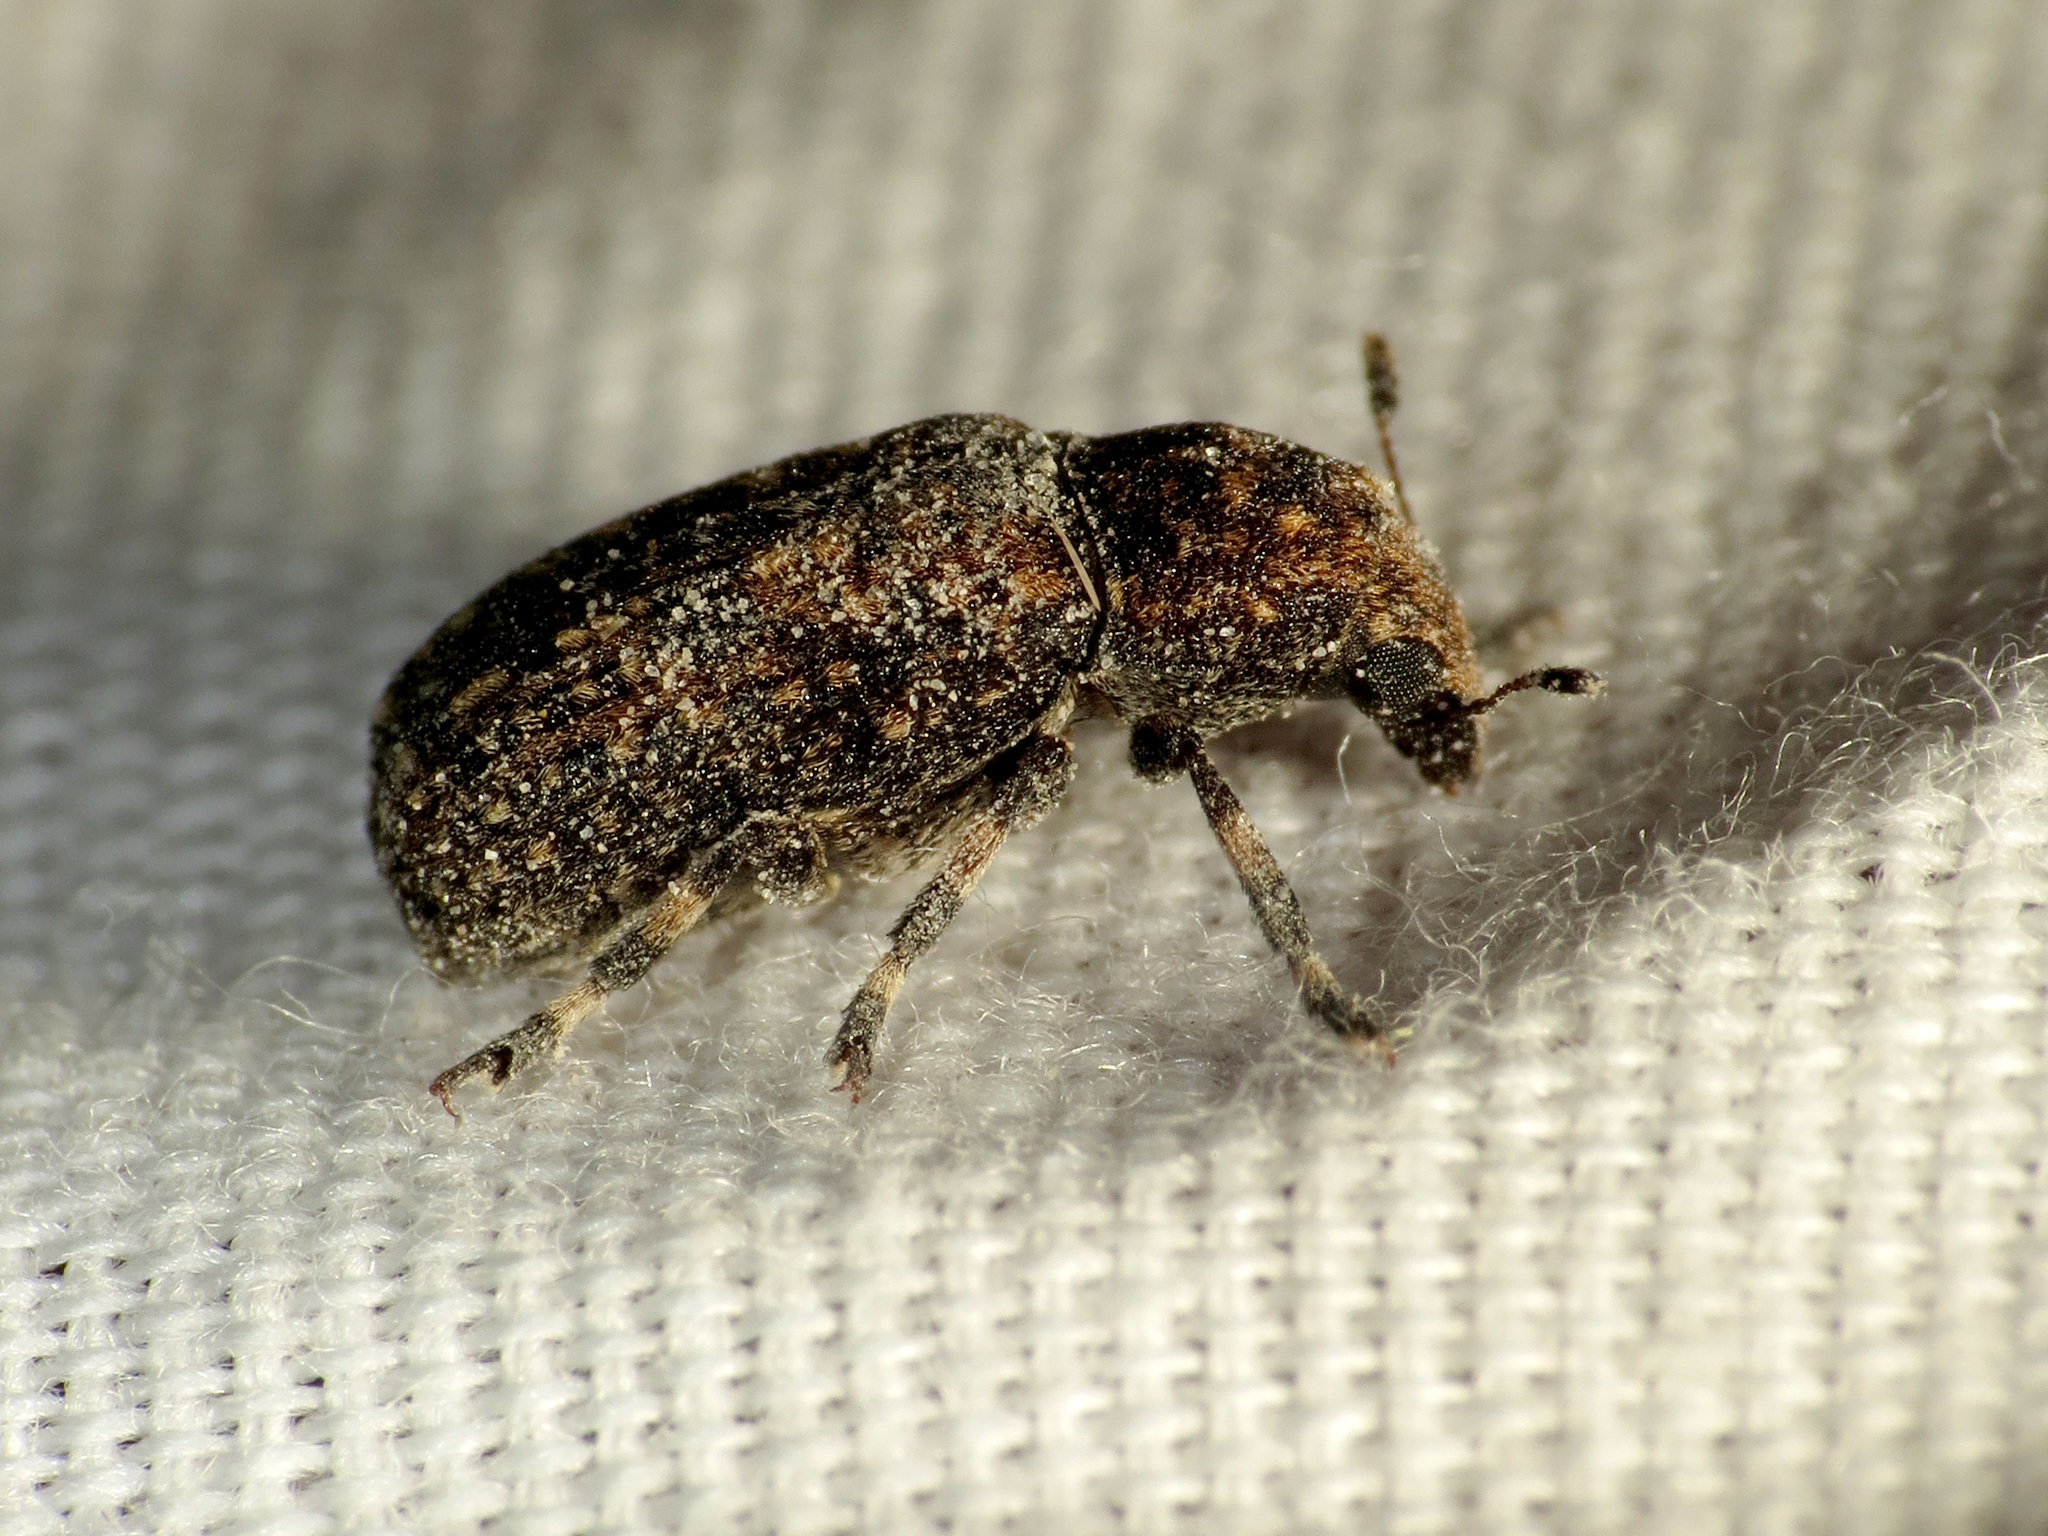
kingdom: Animalia
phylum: Arthropoda
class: Insecta
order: Coleoptera
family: Anthribidae
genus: Euparius
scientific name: Euparius subtessellatus
